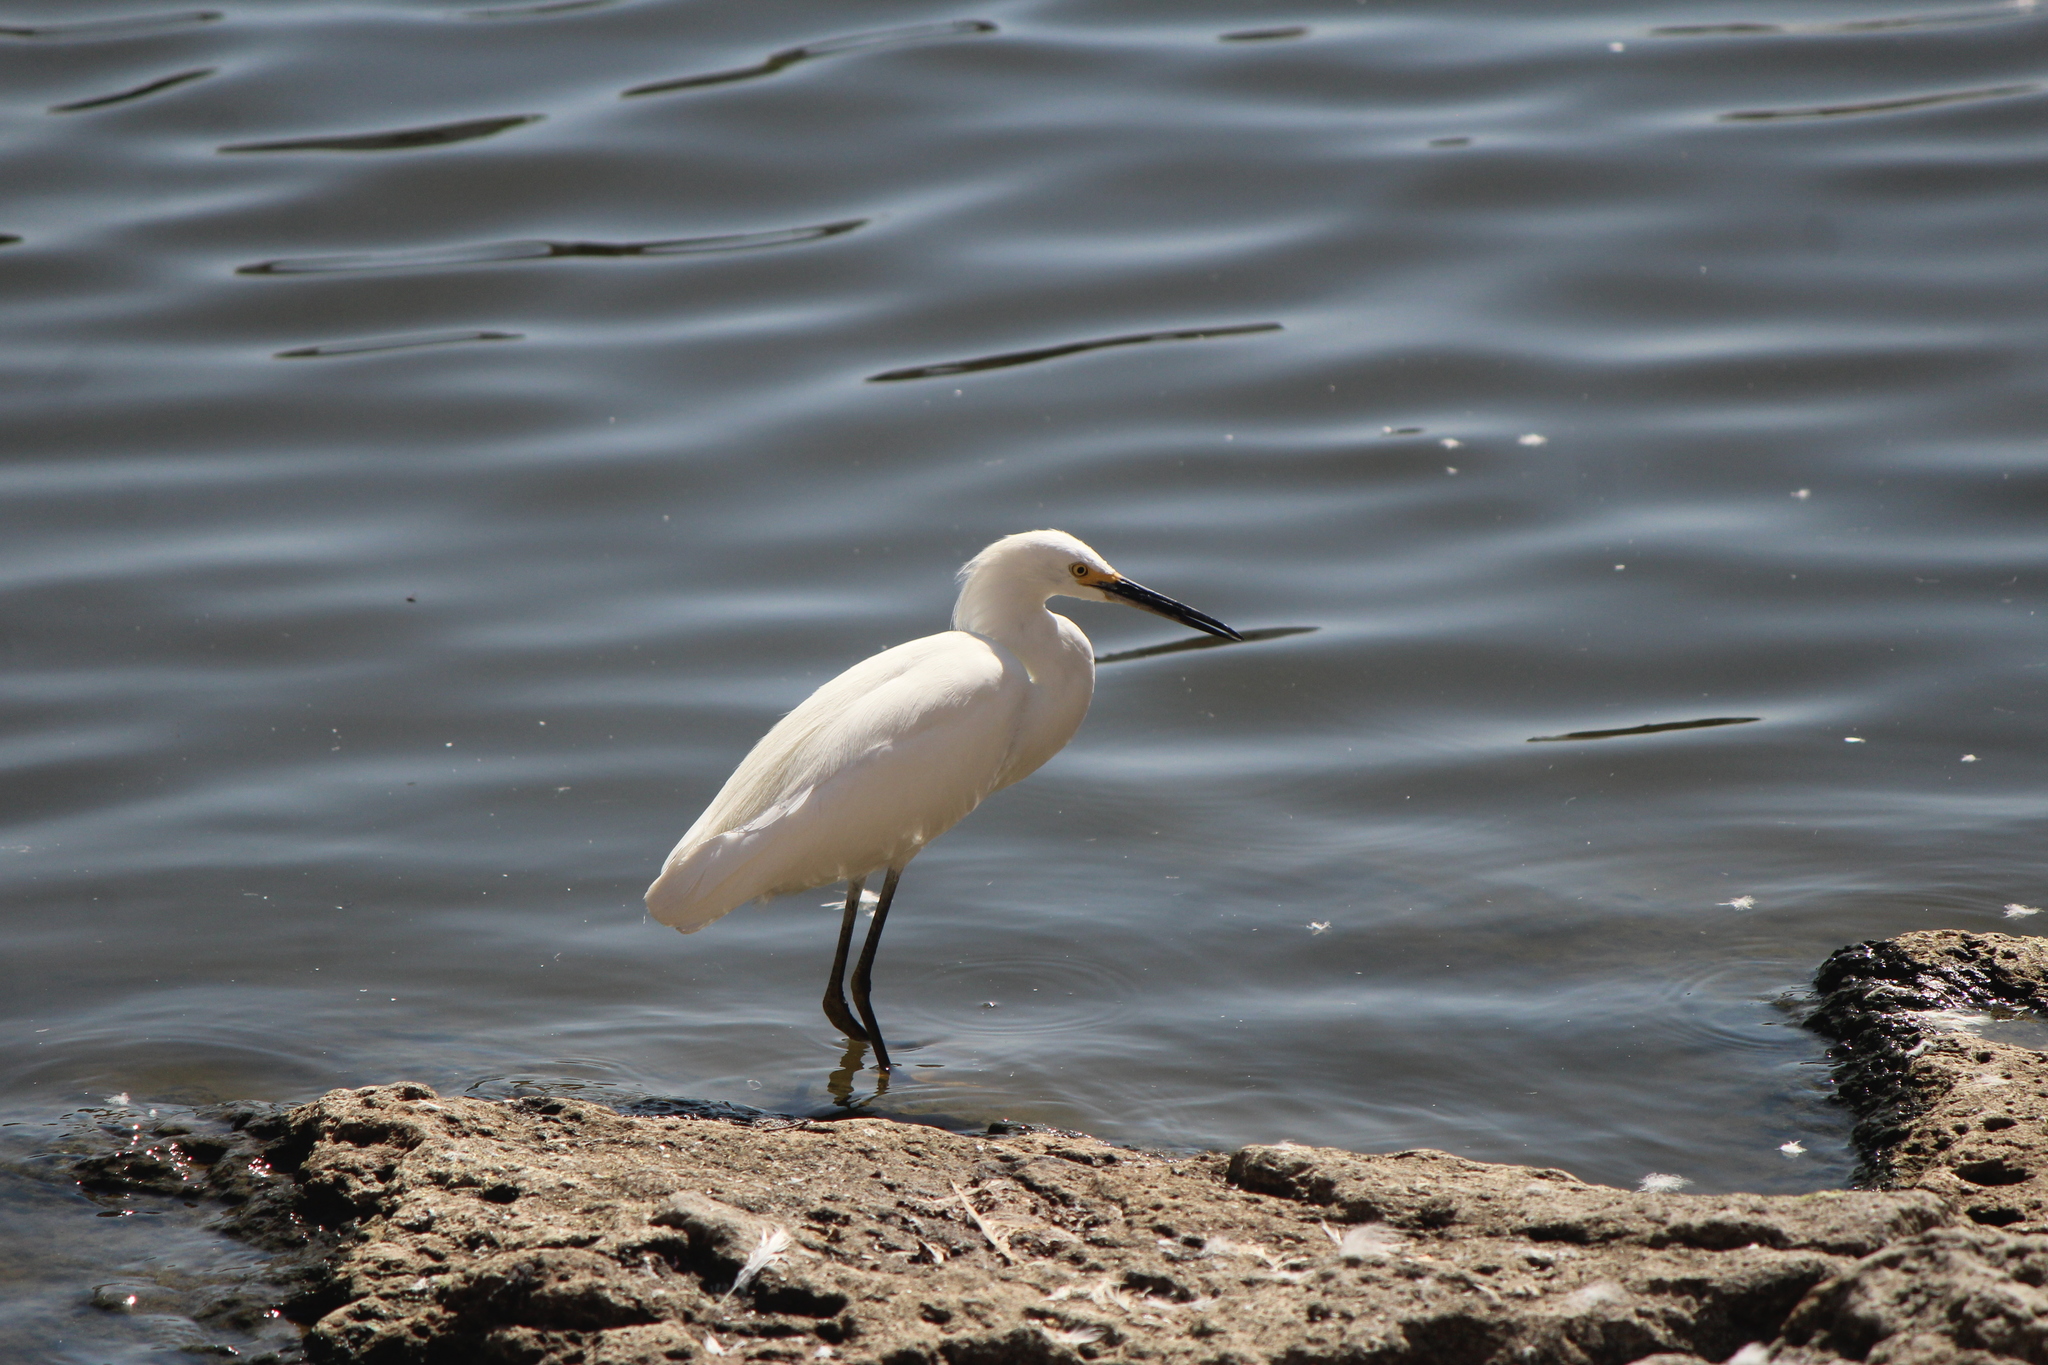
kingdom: Animalia
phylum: Chordata
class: Aves
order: Pelecaniformes
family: Ardeidae
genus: Egretta
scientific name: Egretta thula
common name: Snowy egret
